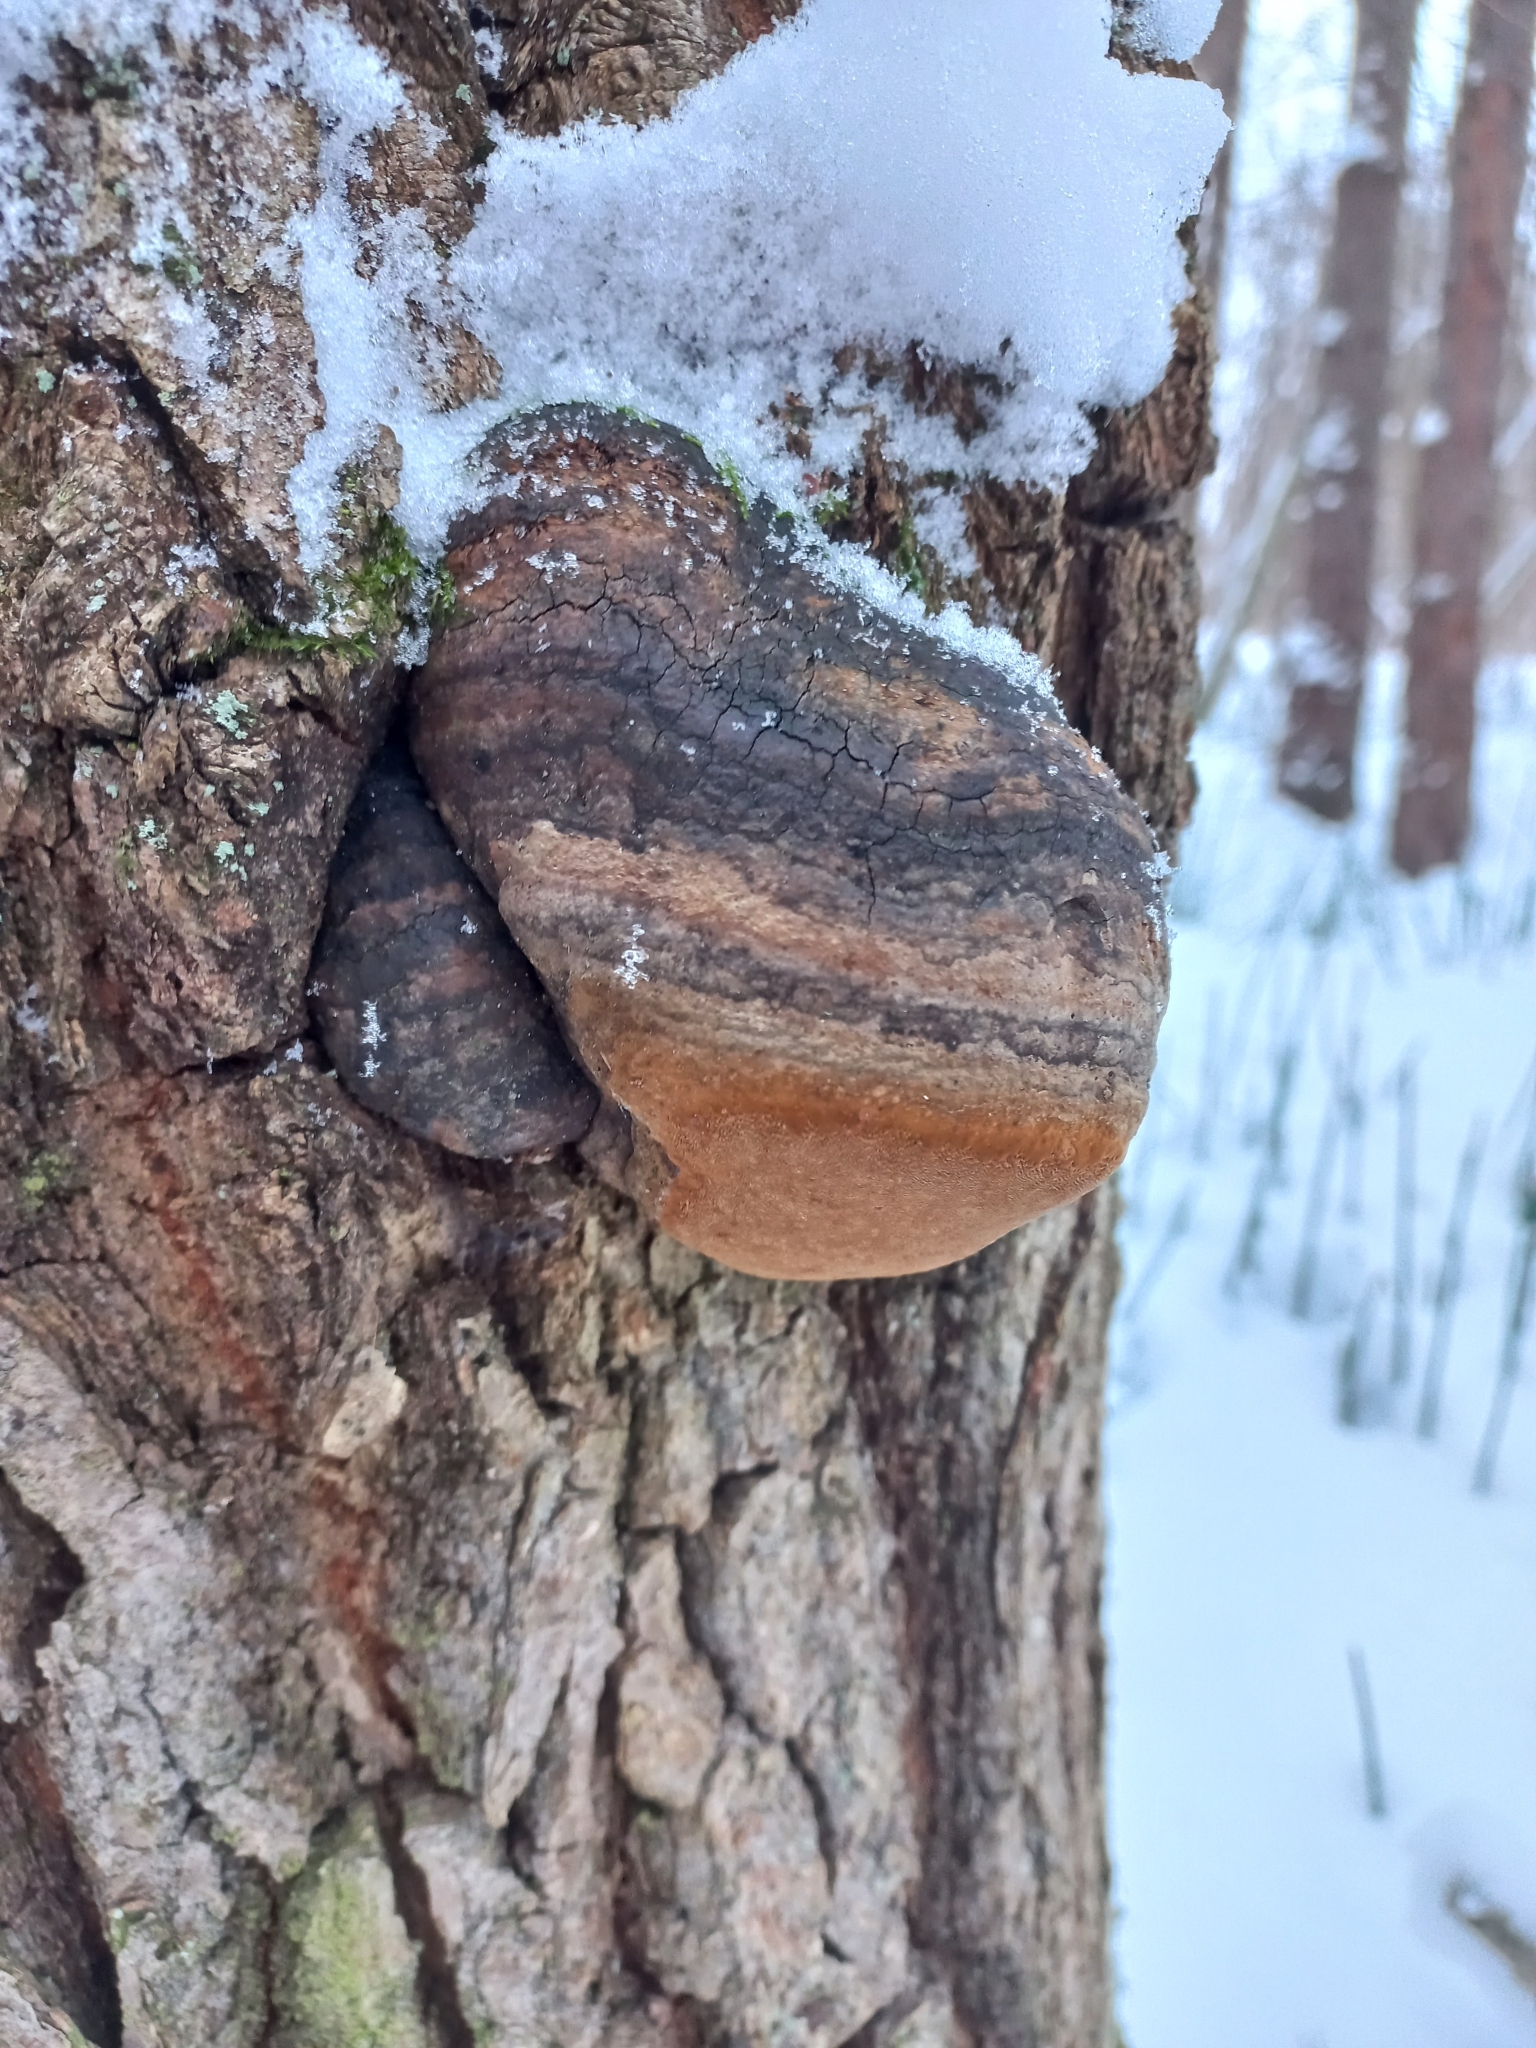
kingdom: Fungi
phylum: Basidiomycota
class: Agaricomycetes
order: Hymenochaetales
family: Hymenochaetaceae
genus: Fomitiporia
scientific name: Fomitiporia robusta
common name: Robust bracket
